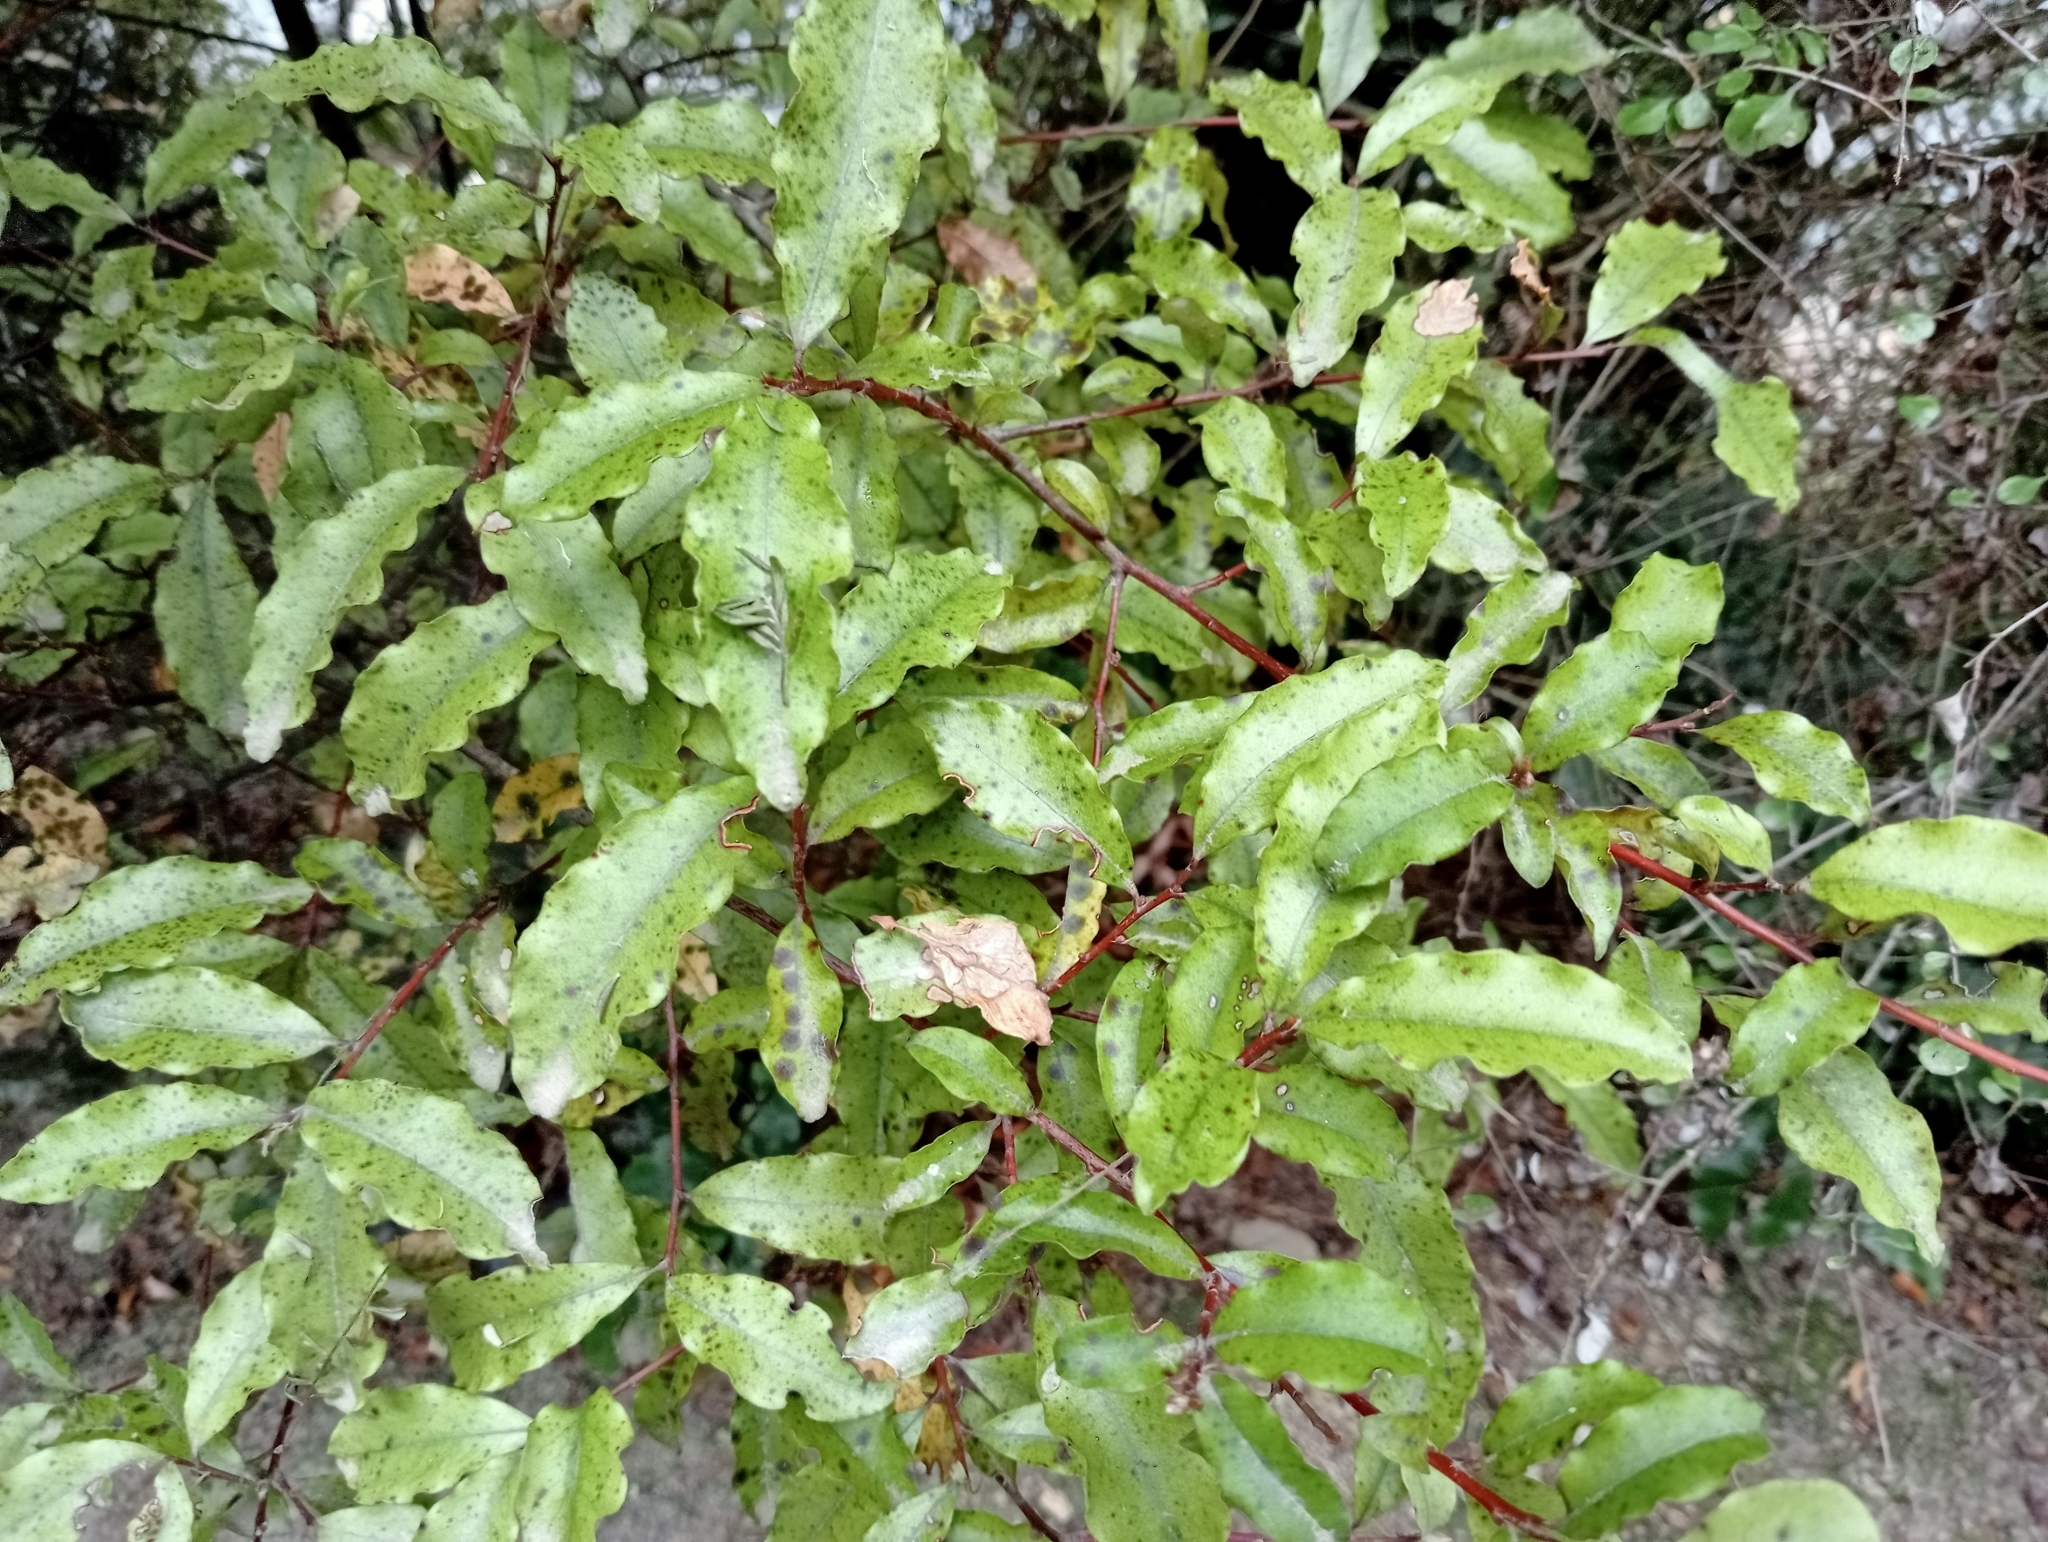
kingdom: Plantae
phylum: Tracheophyta
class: Magnoliopsida
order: Ericales
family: Primulaceae
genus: Myrsine
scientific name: Myrsine australis
